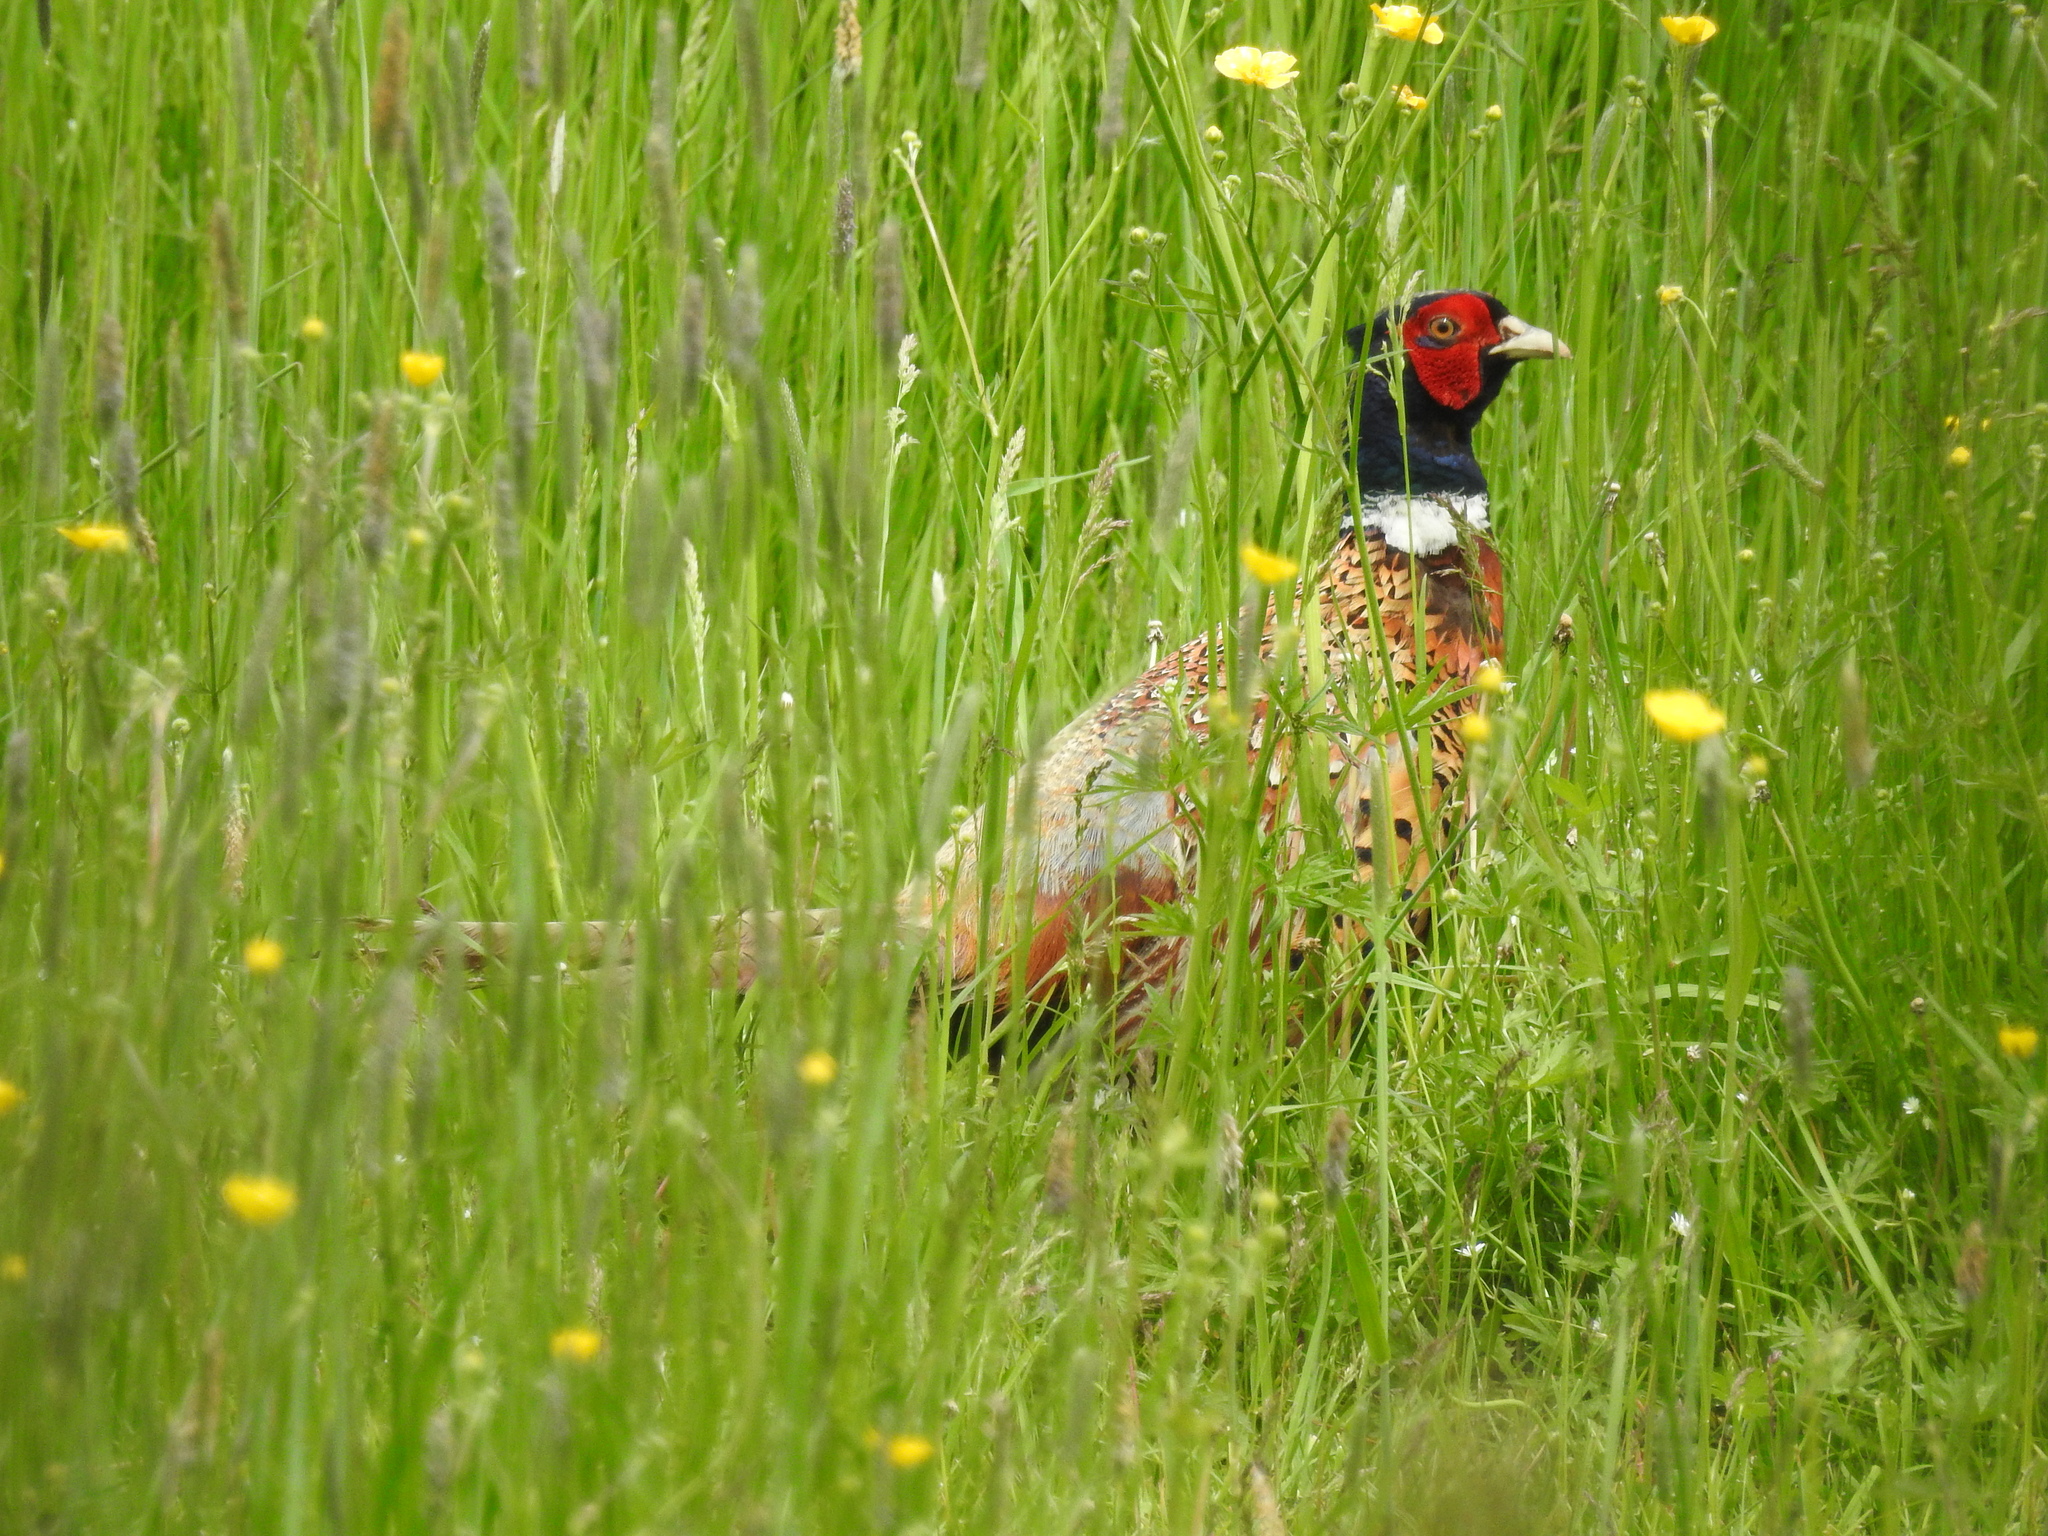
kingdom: Animalia
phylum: Chordata
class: Aves
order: Galliformes
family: Phasianidae
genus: Phasianus
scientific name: Phasianus colchicus
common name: Common pheasant
